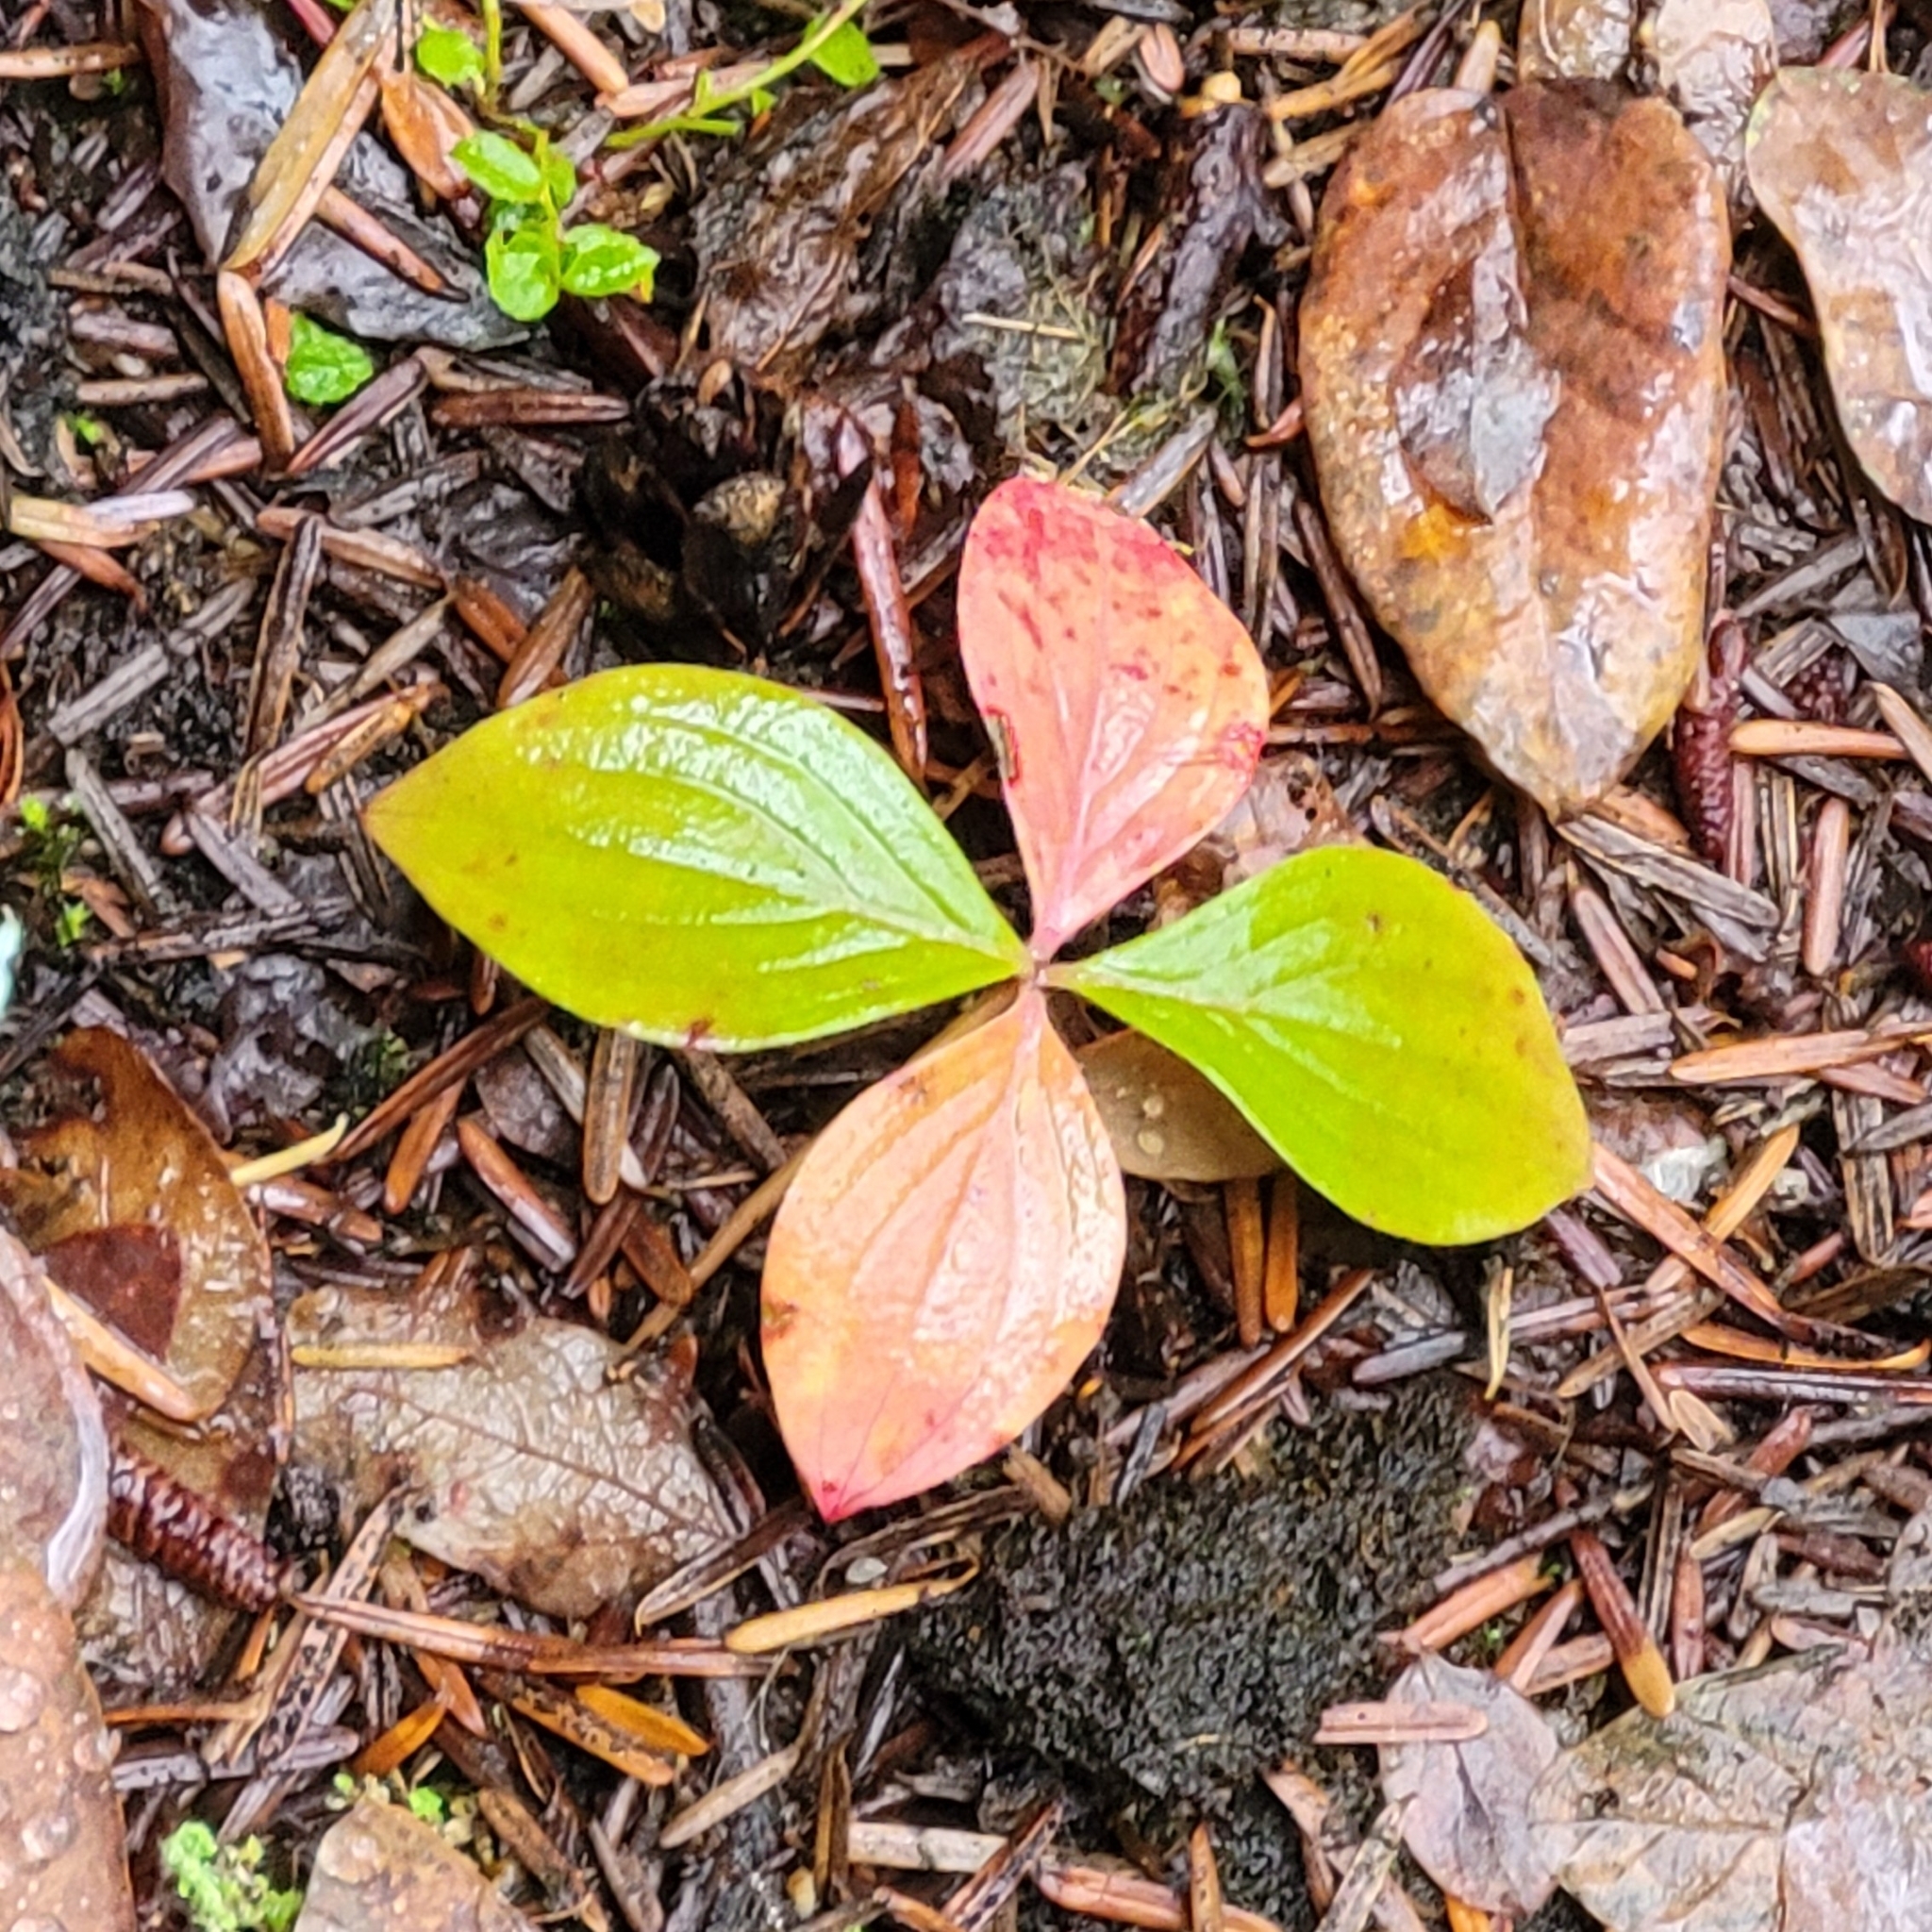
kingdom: Plantae
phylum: Tracheophyta
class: Magnoliopsida
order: Cornales
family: Cornaceae
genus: Cornus
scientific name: Cornus unalaschkensis
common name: Alaska bunchberry
